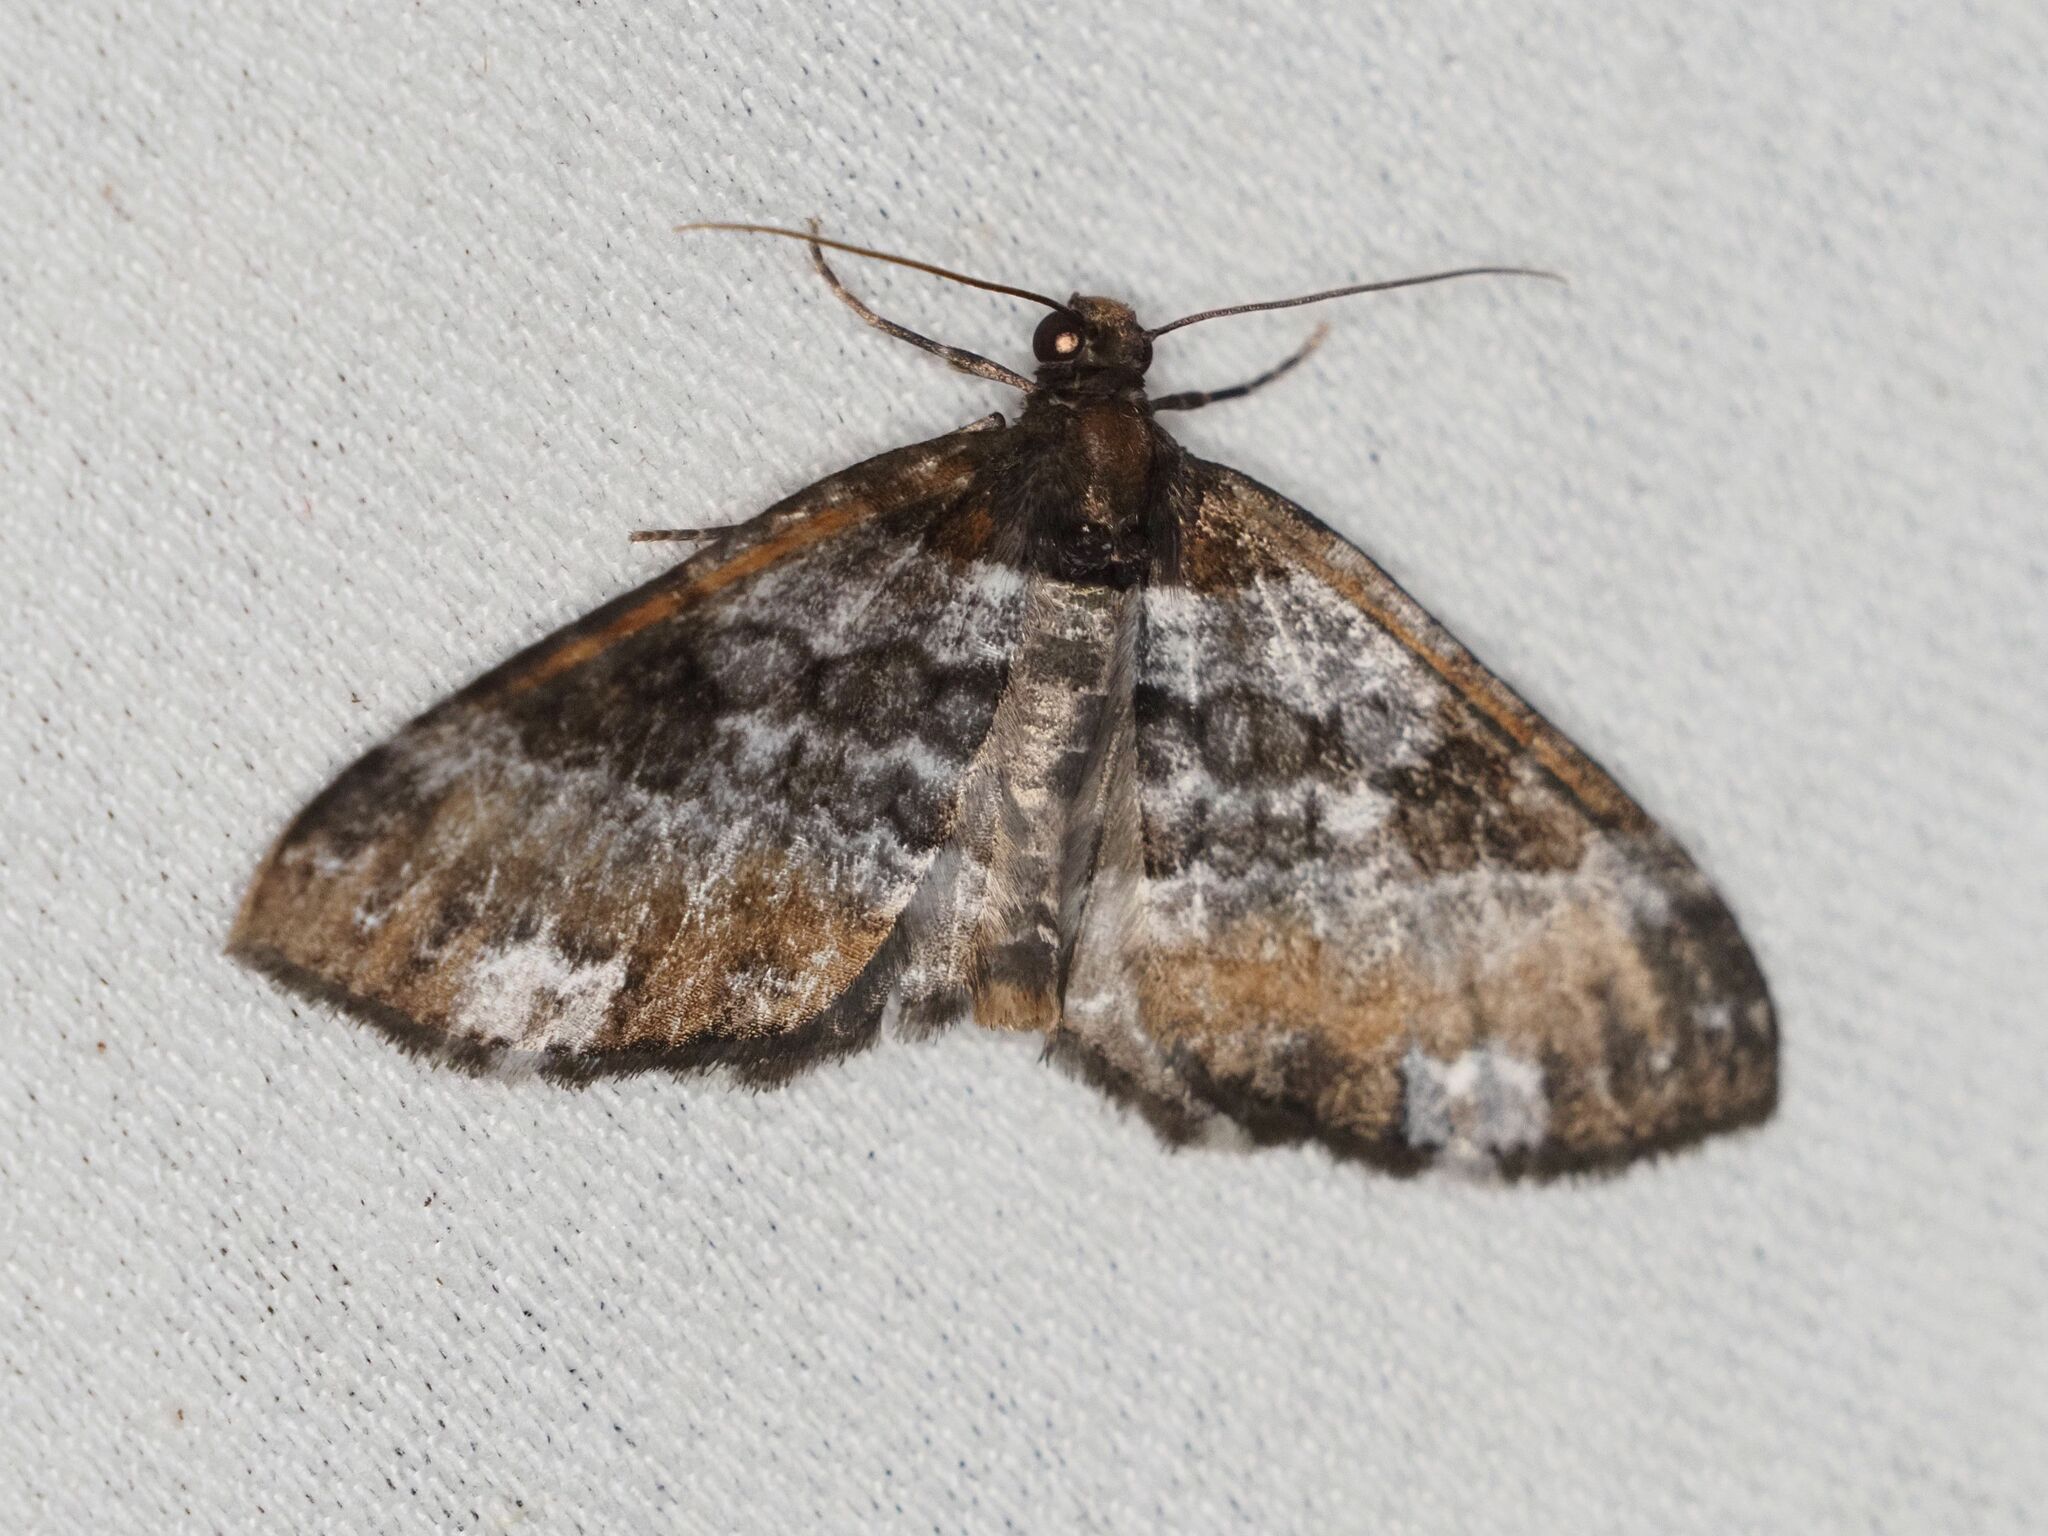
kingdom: Animalia
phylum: Arthropoda
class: Insecta
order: Lepidoptera
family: Geometridae
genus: Melanthia
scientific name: Melanthia procellata
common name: Pretty chalk carpet
